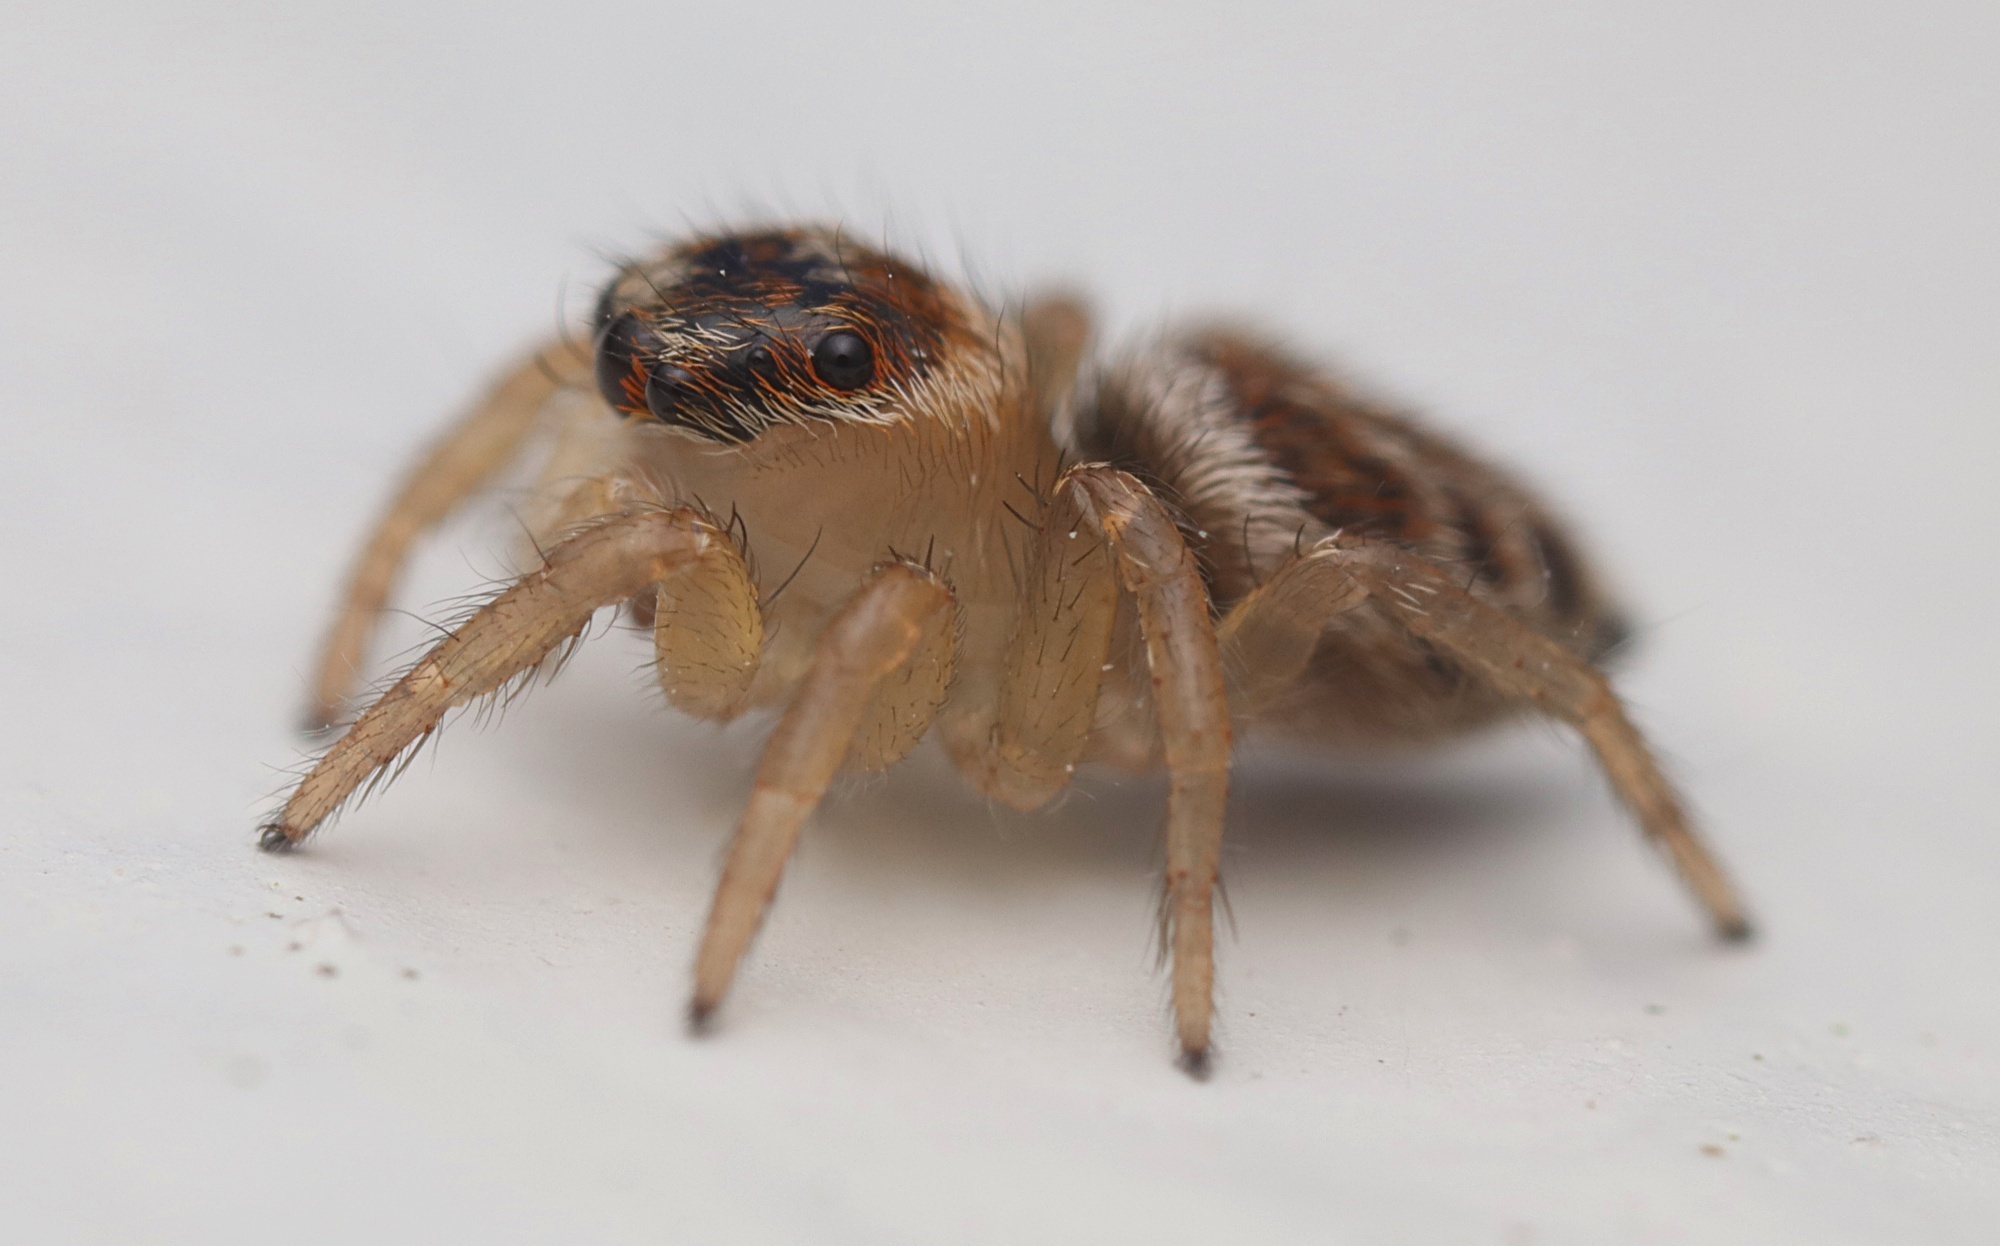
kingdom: Animalia
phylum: Arthropoda
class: Arachnida
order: Araneae
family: Salticidae
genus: Maratus
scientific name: Maratus griseus
